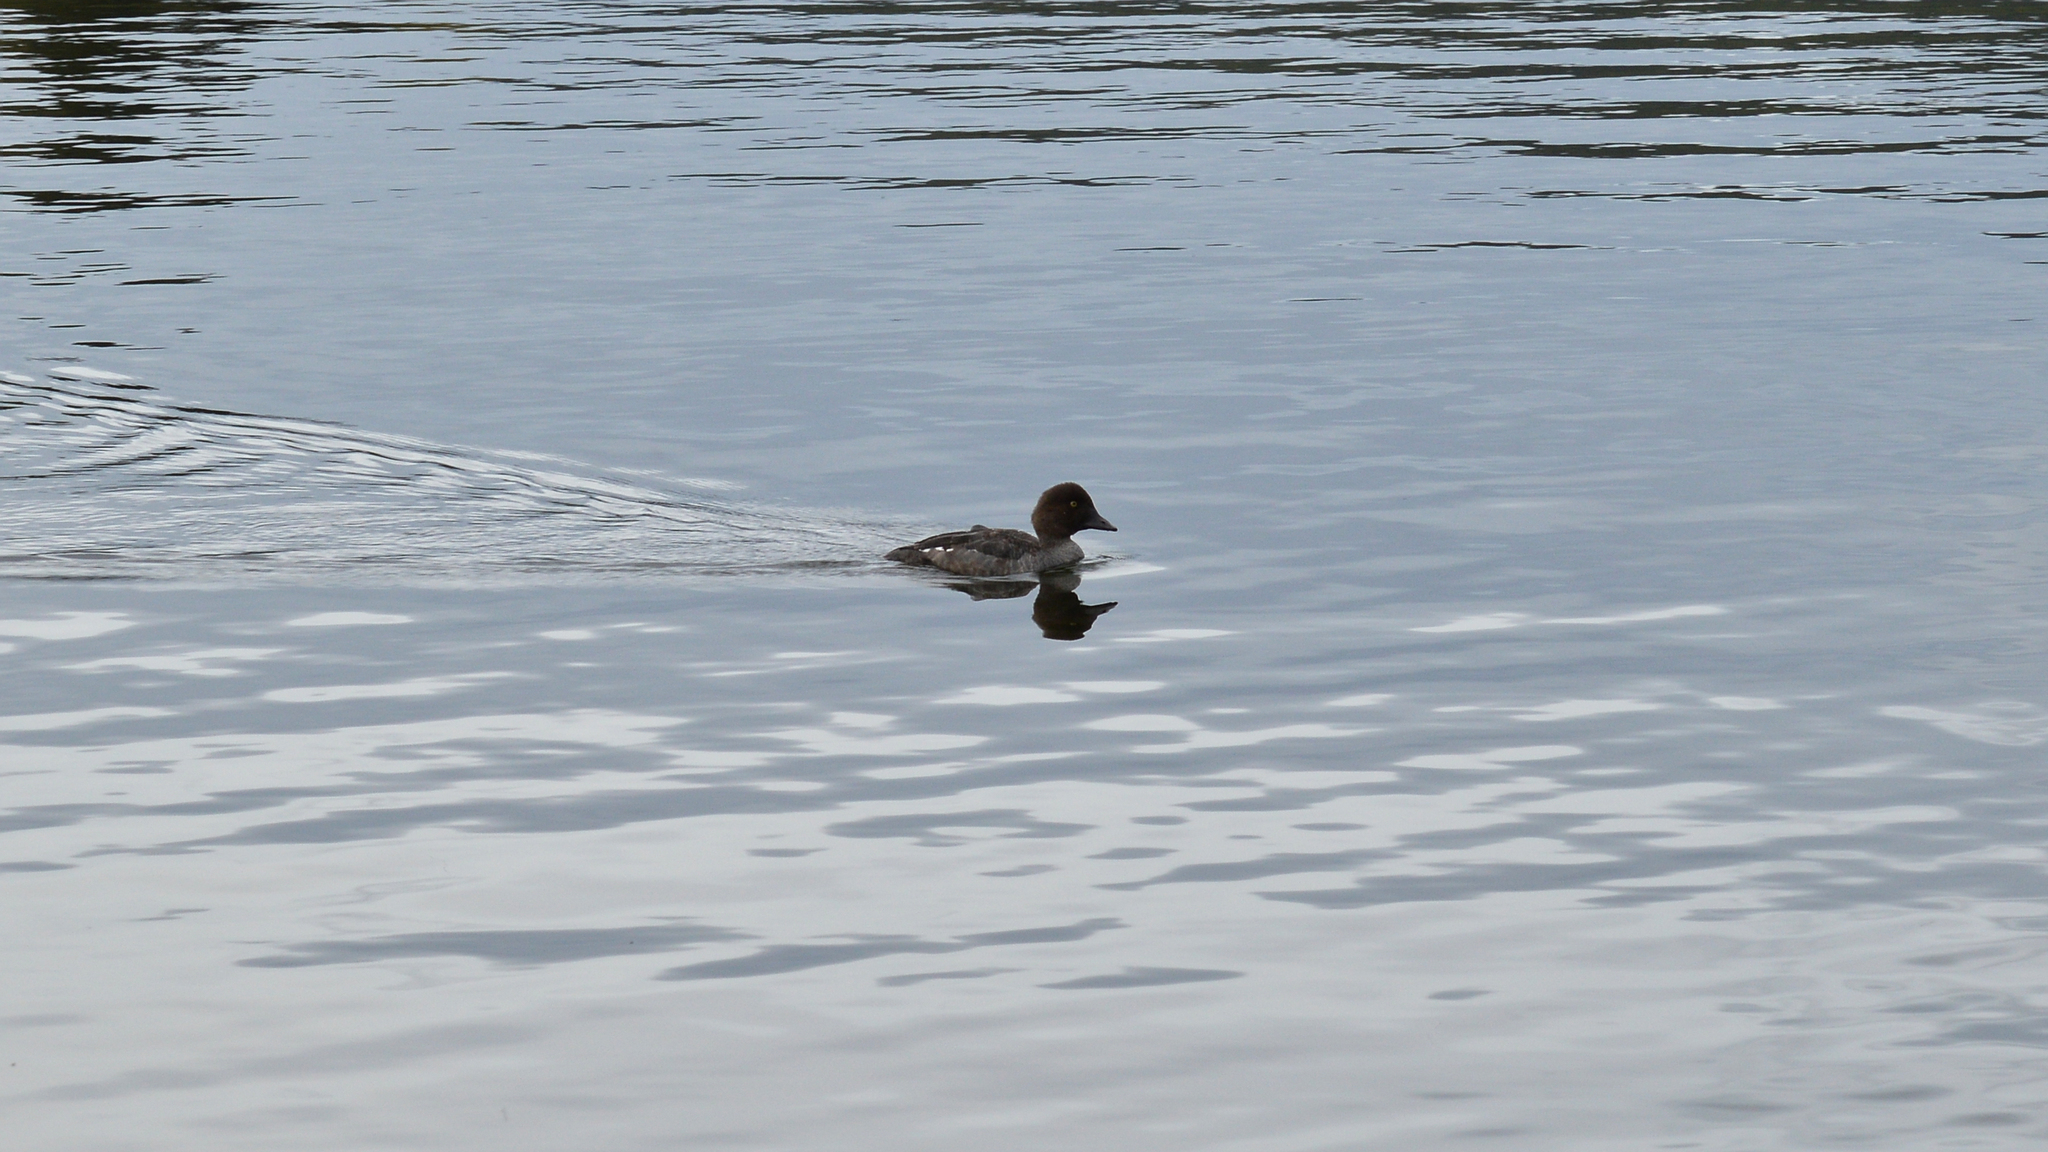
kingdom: Animalia
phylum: Chordata
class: Aves
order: Anseriformes
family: Anatidae
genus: Bucephala
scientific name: Bucephala clangula
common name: Common goldeneye
